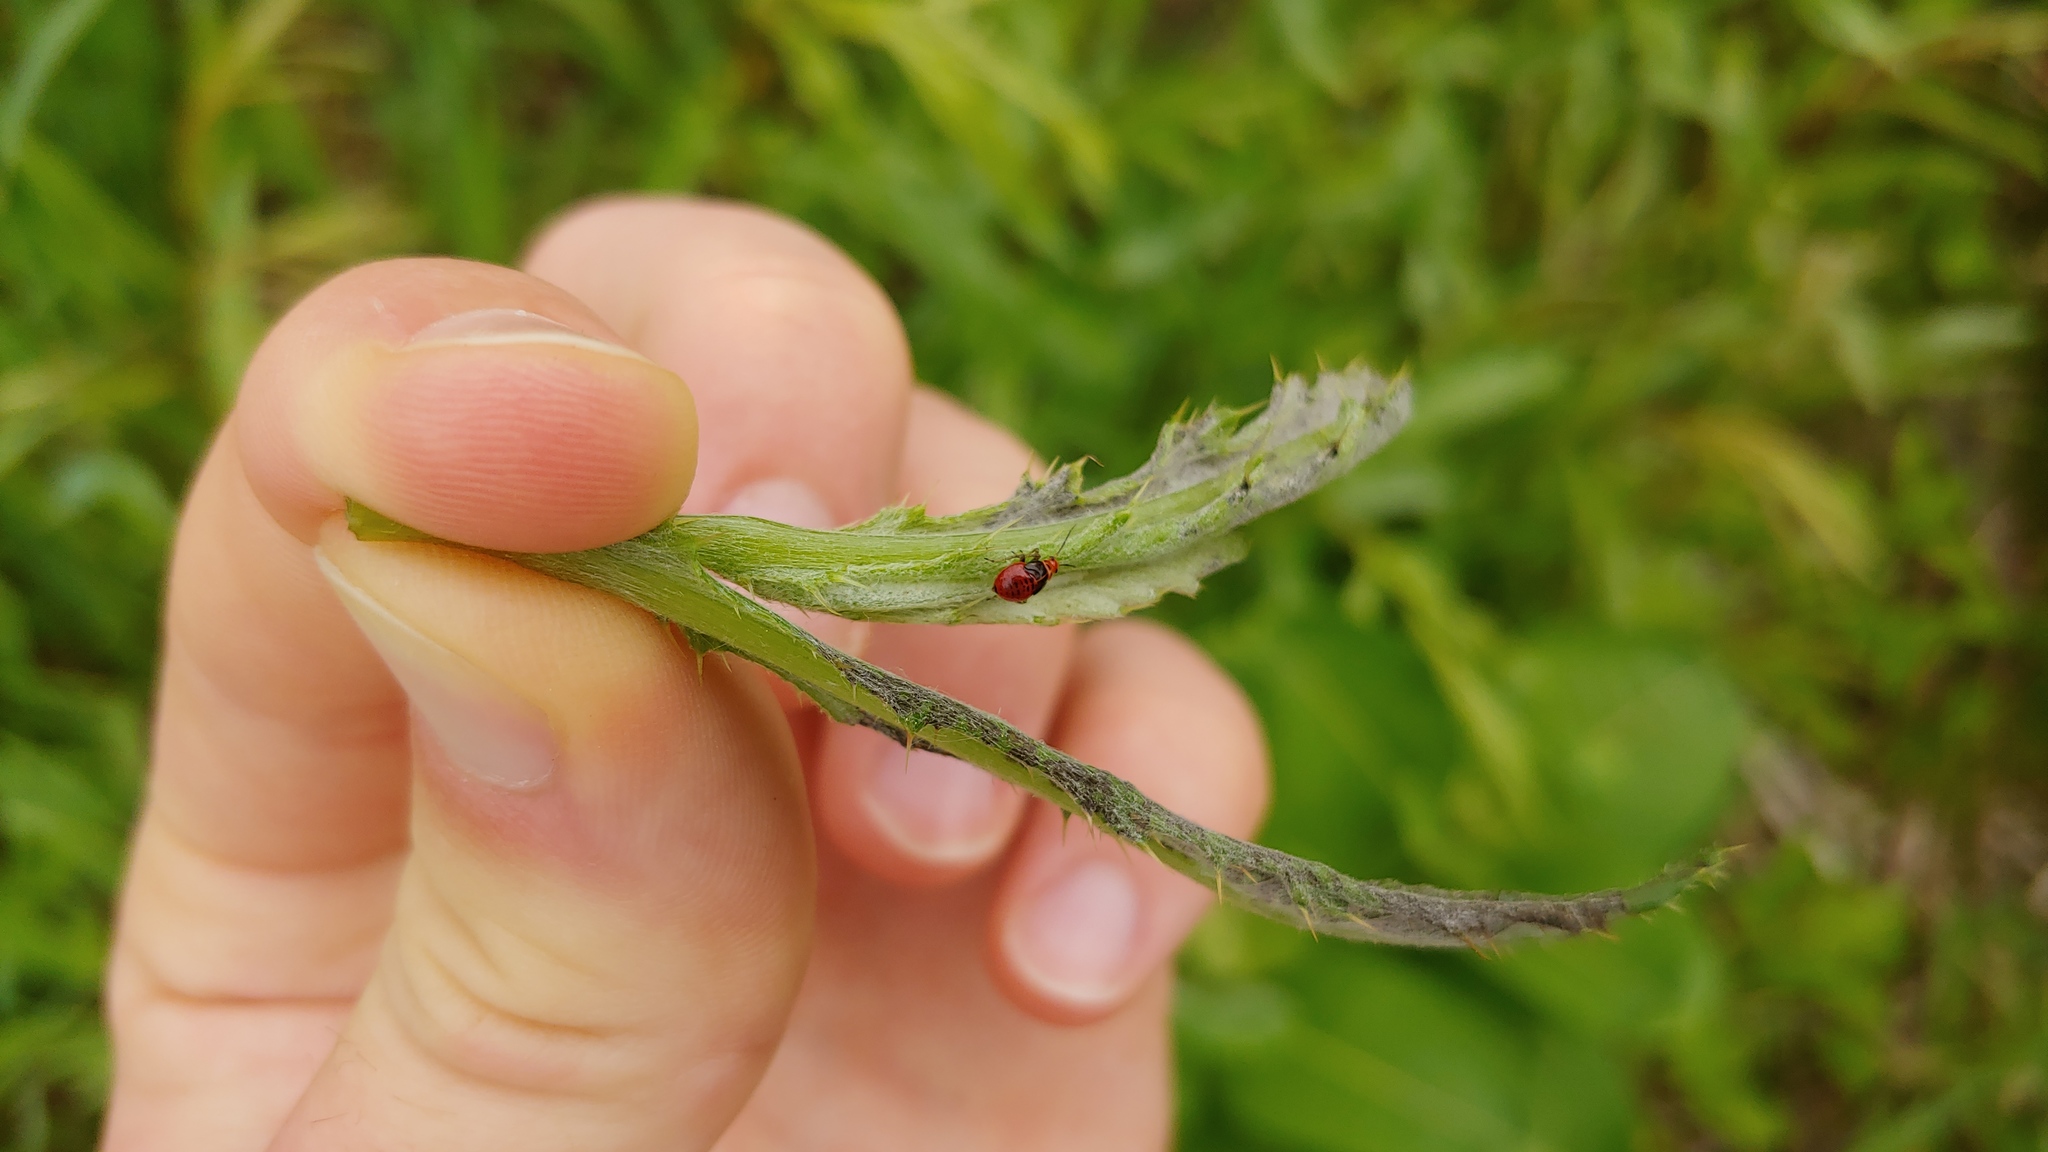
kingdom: Animalia
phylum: Arthropoda
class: Insecta
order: Hemiptera
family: Miridae
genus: Poecilocapsus
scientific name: Poecilocapsus lineatus
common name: Four-lined plant bug
